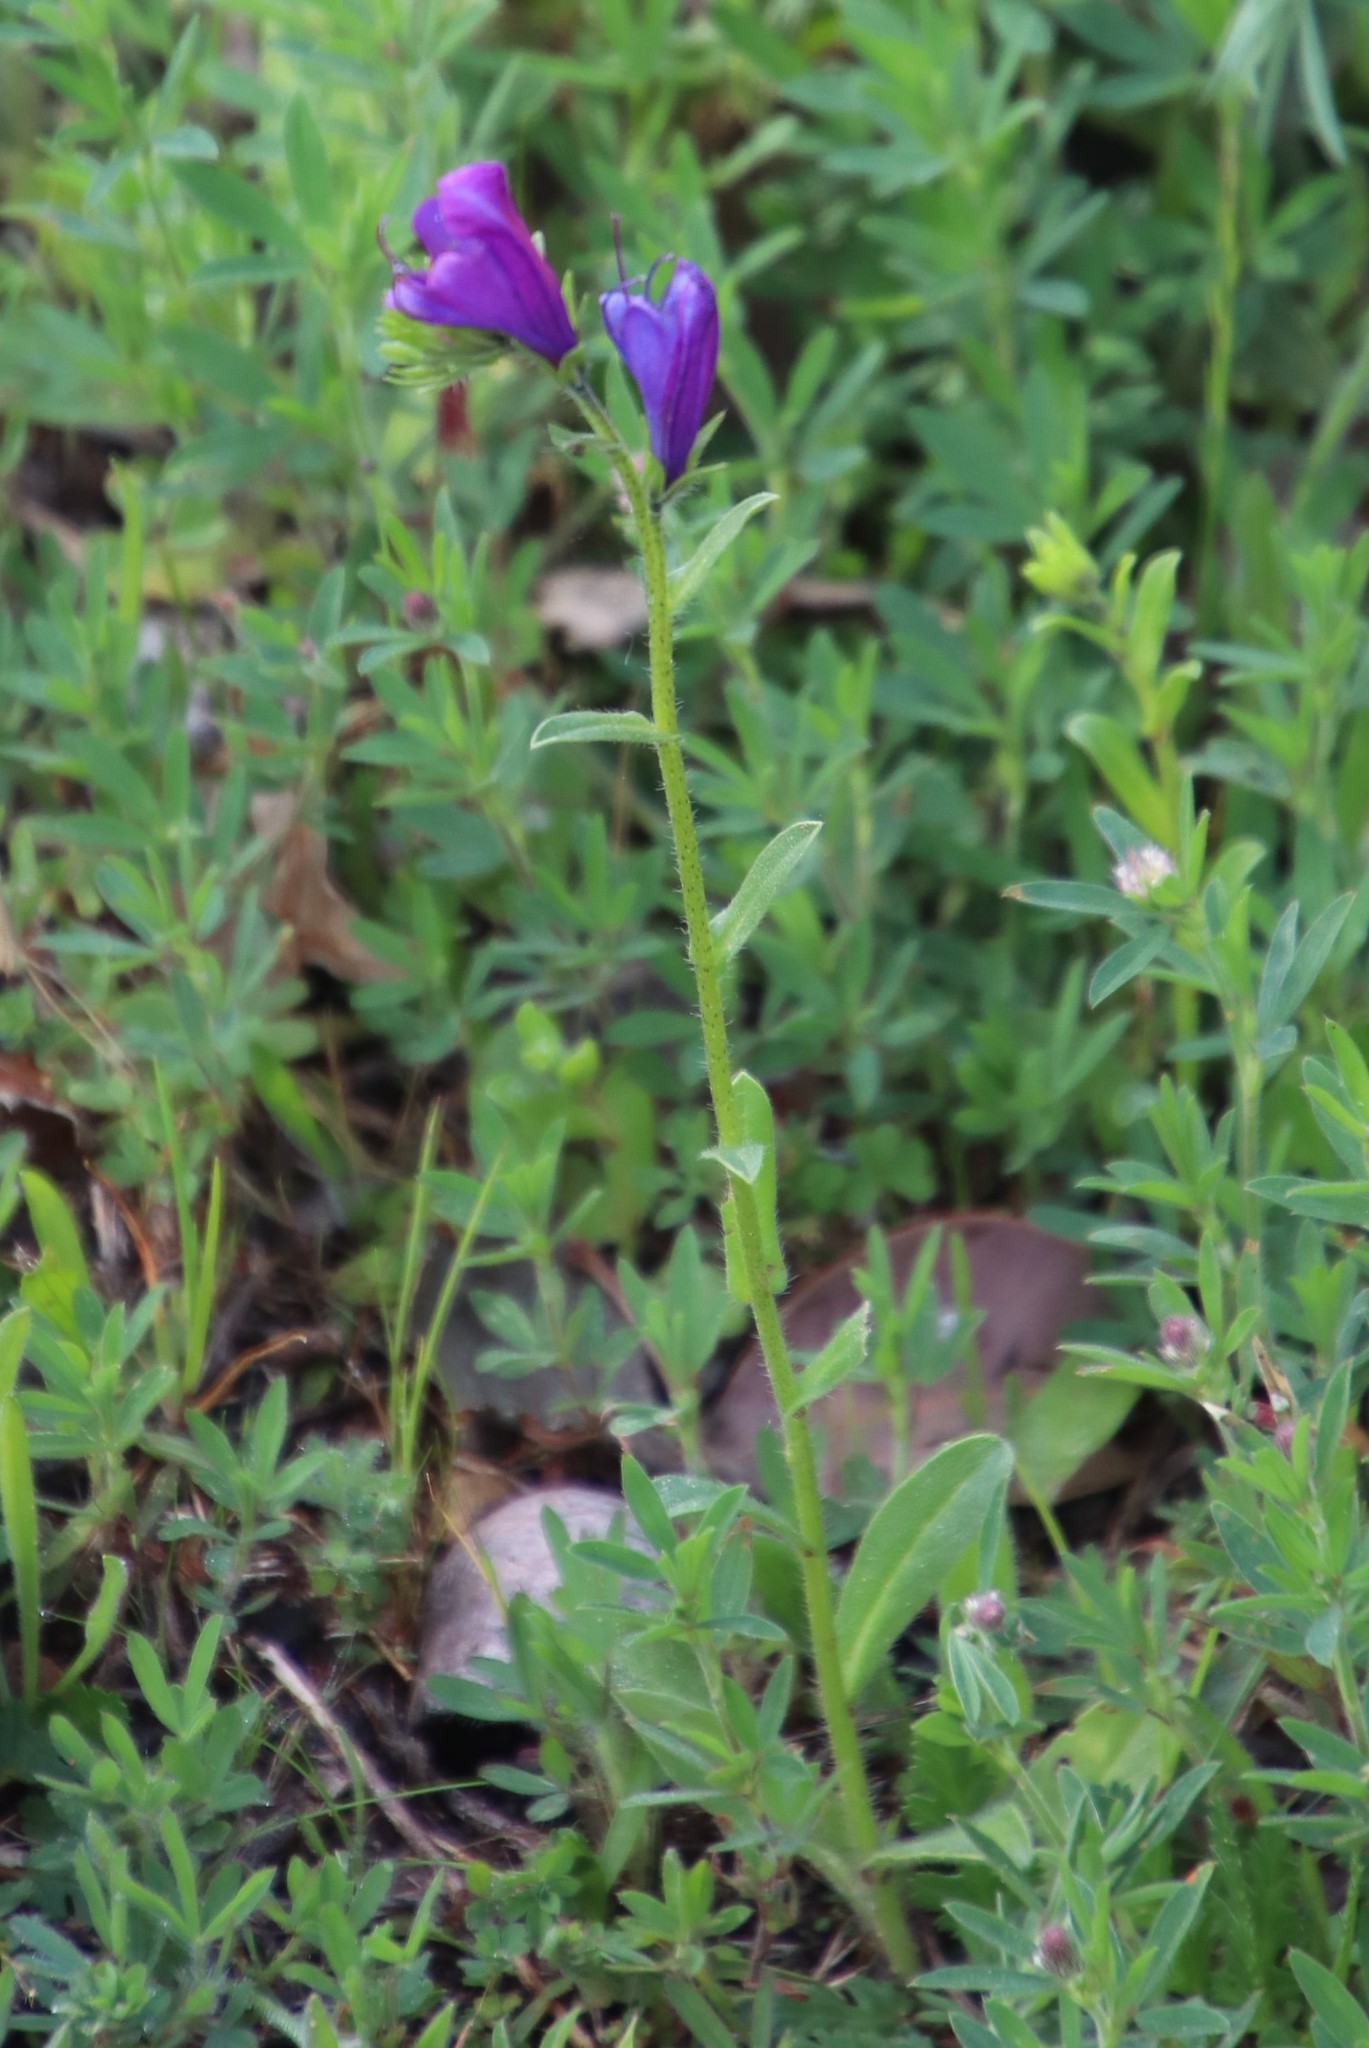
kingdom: Plantae
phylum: Tracheophyta
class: Magnoliopsida
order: Boraginales
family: Boraginaceae
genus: Echium
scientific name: Echium plantagineum
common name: Purple viper's-bugloss
